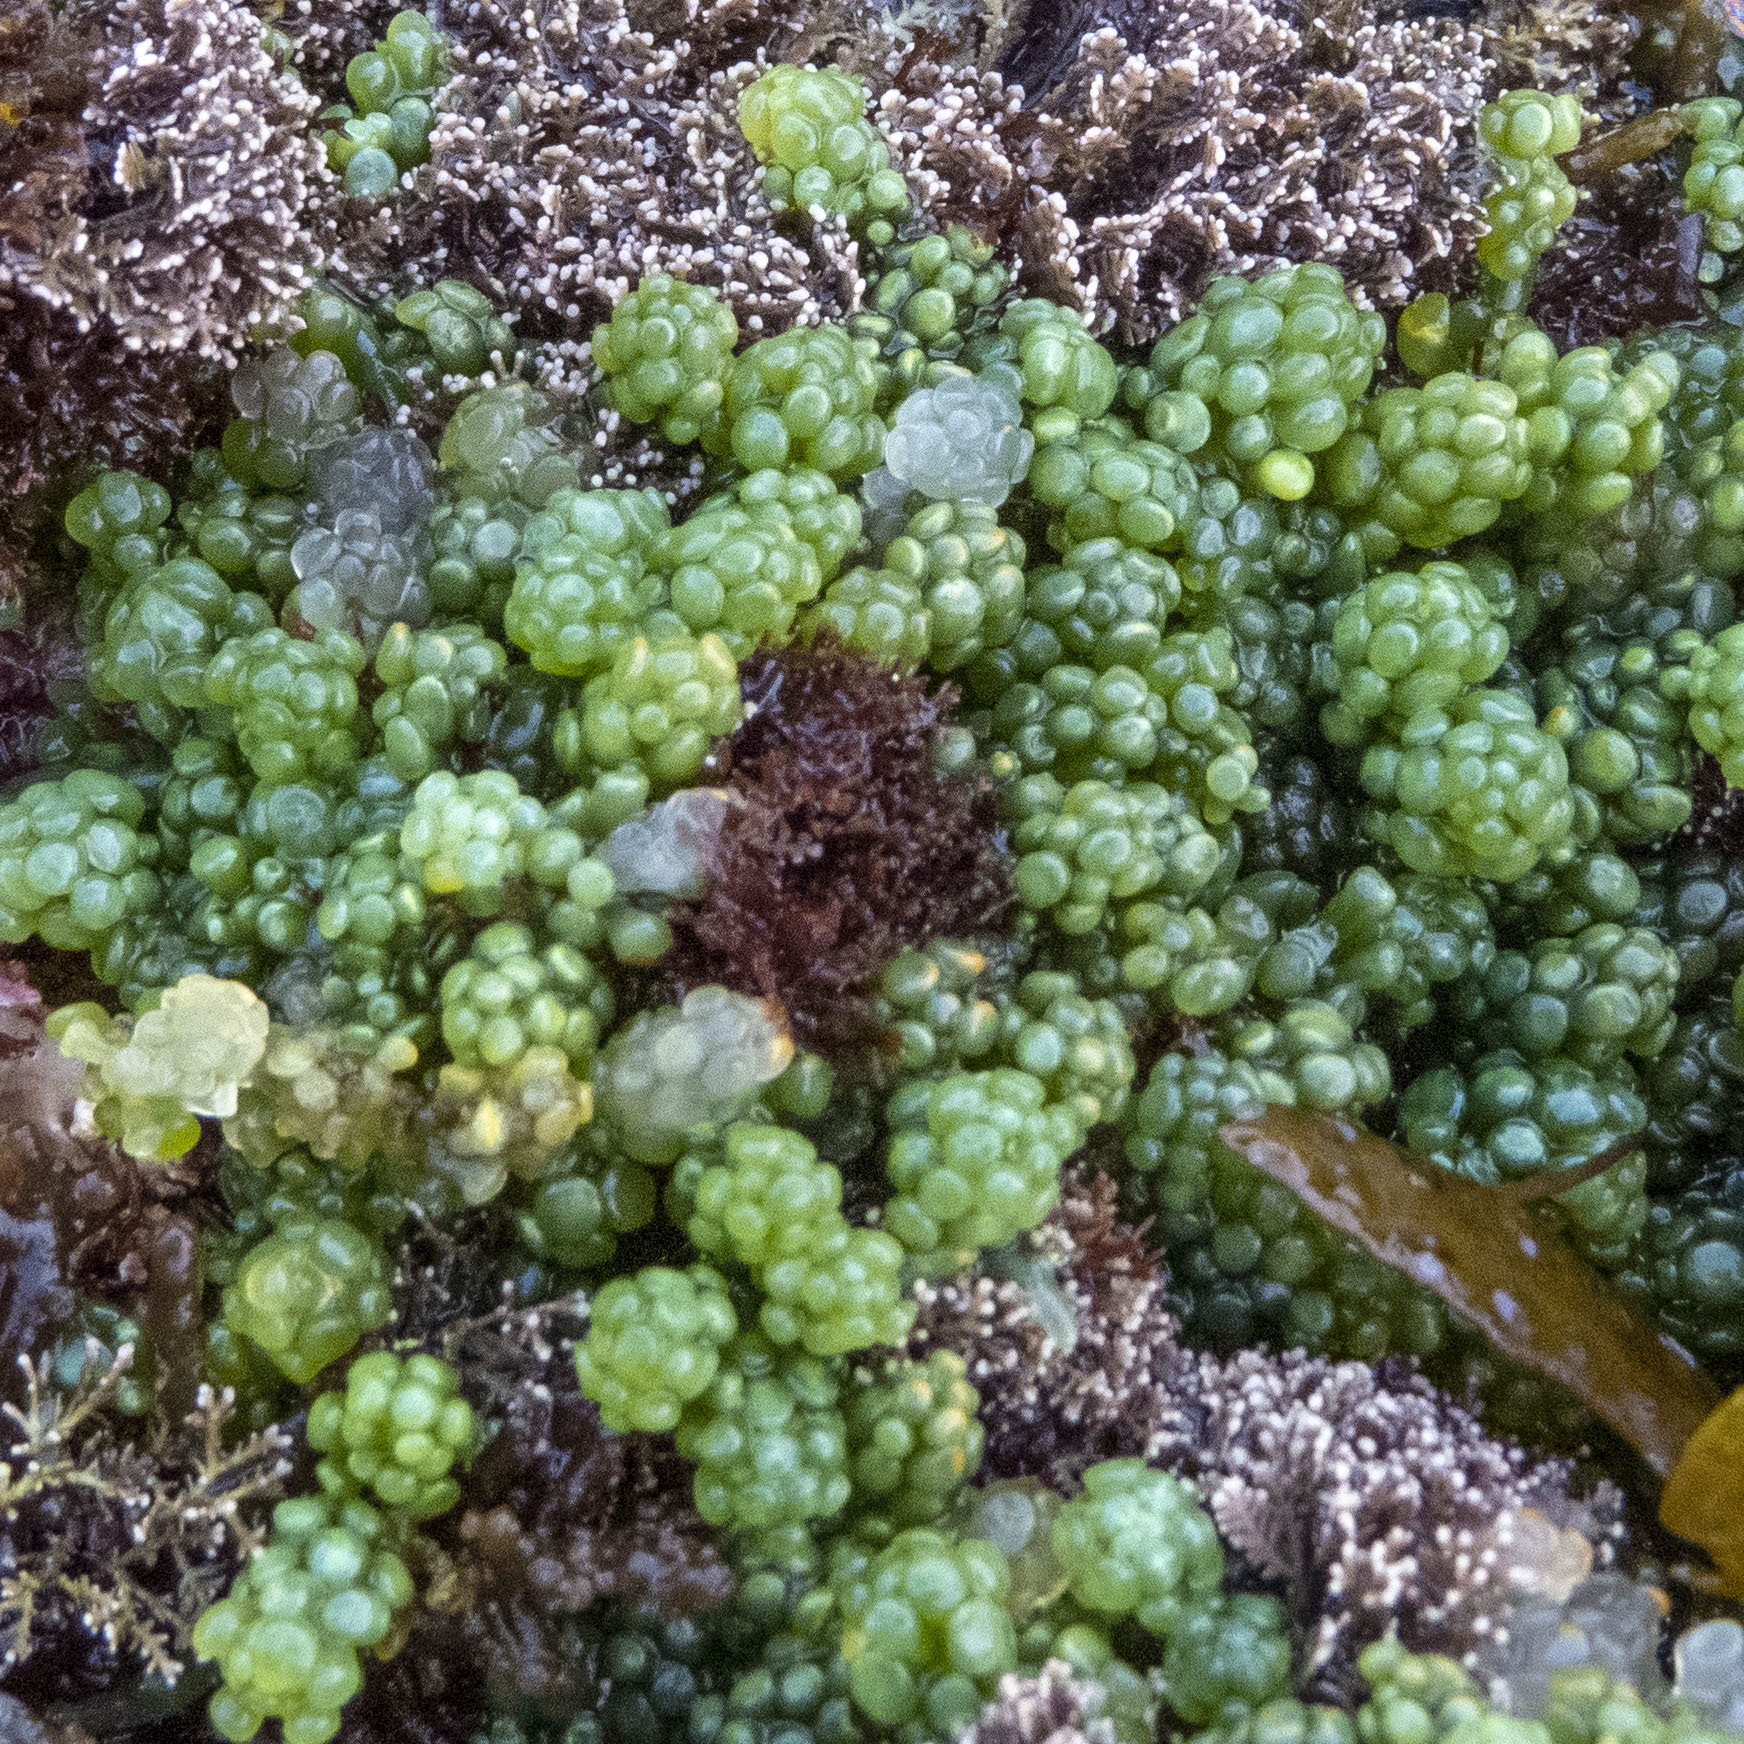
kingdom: Plantae
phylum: Chlorophyta
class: Ulvophyceae
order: Bryopsidales
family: Caulerpaceae
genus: Caulerpa
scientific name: Caulerpa racemosa
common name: Green grape algae
